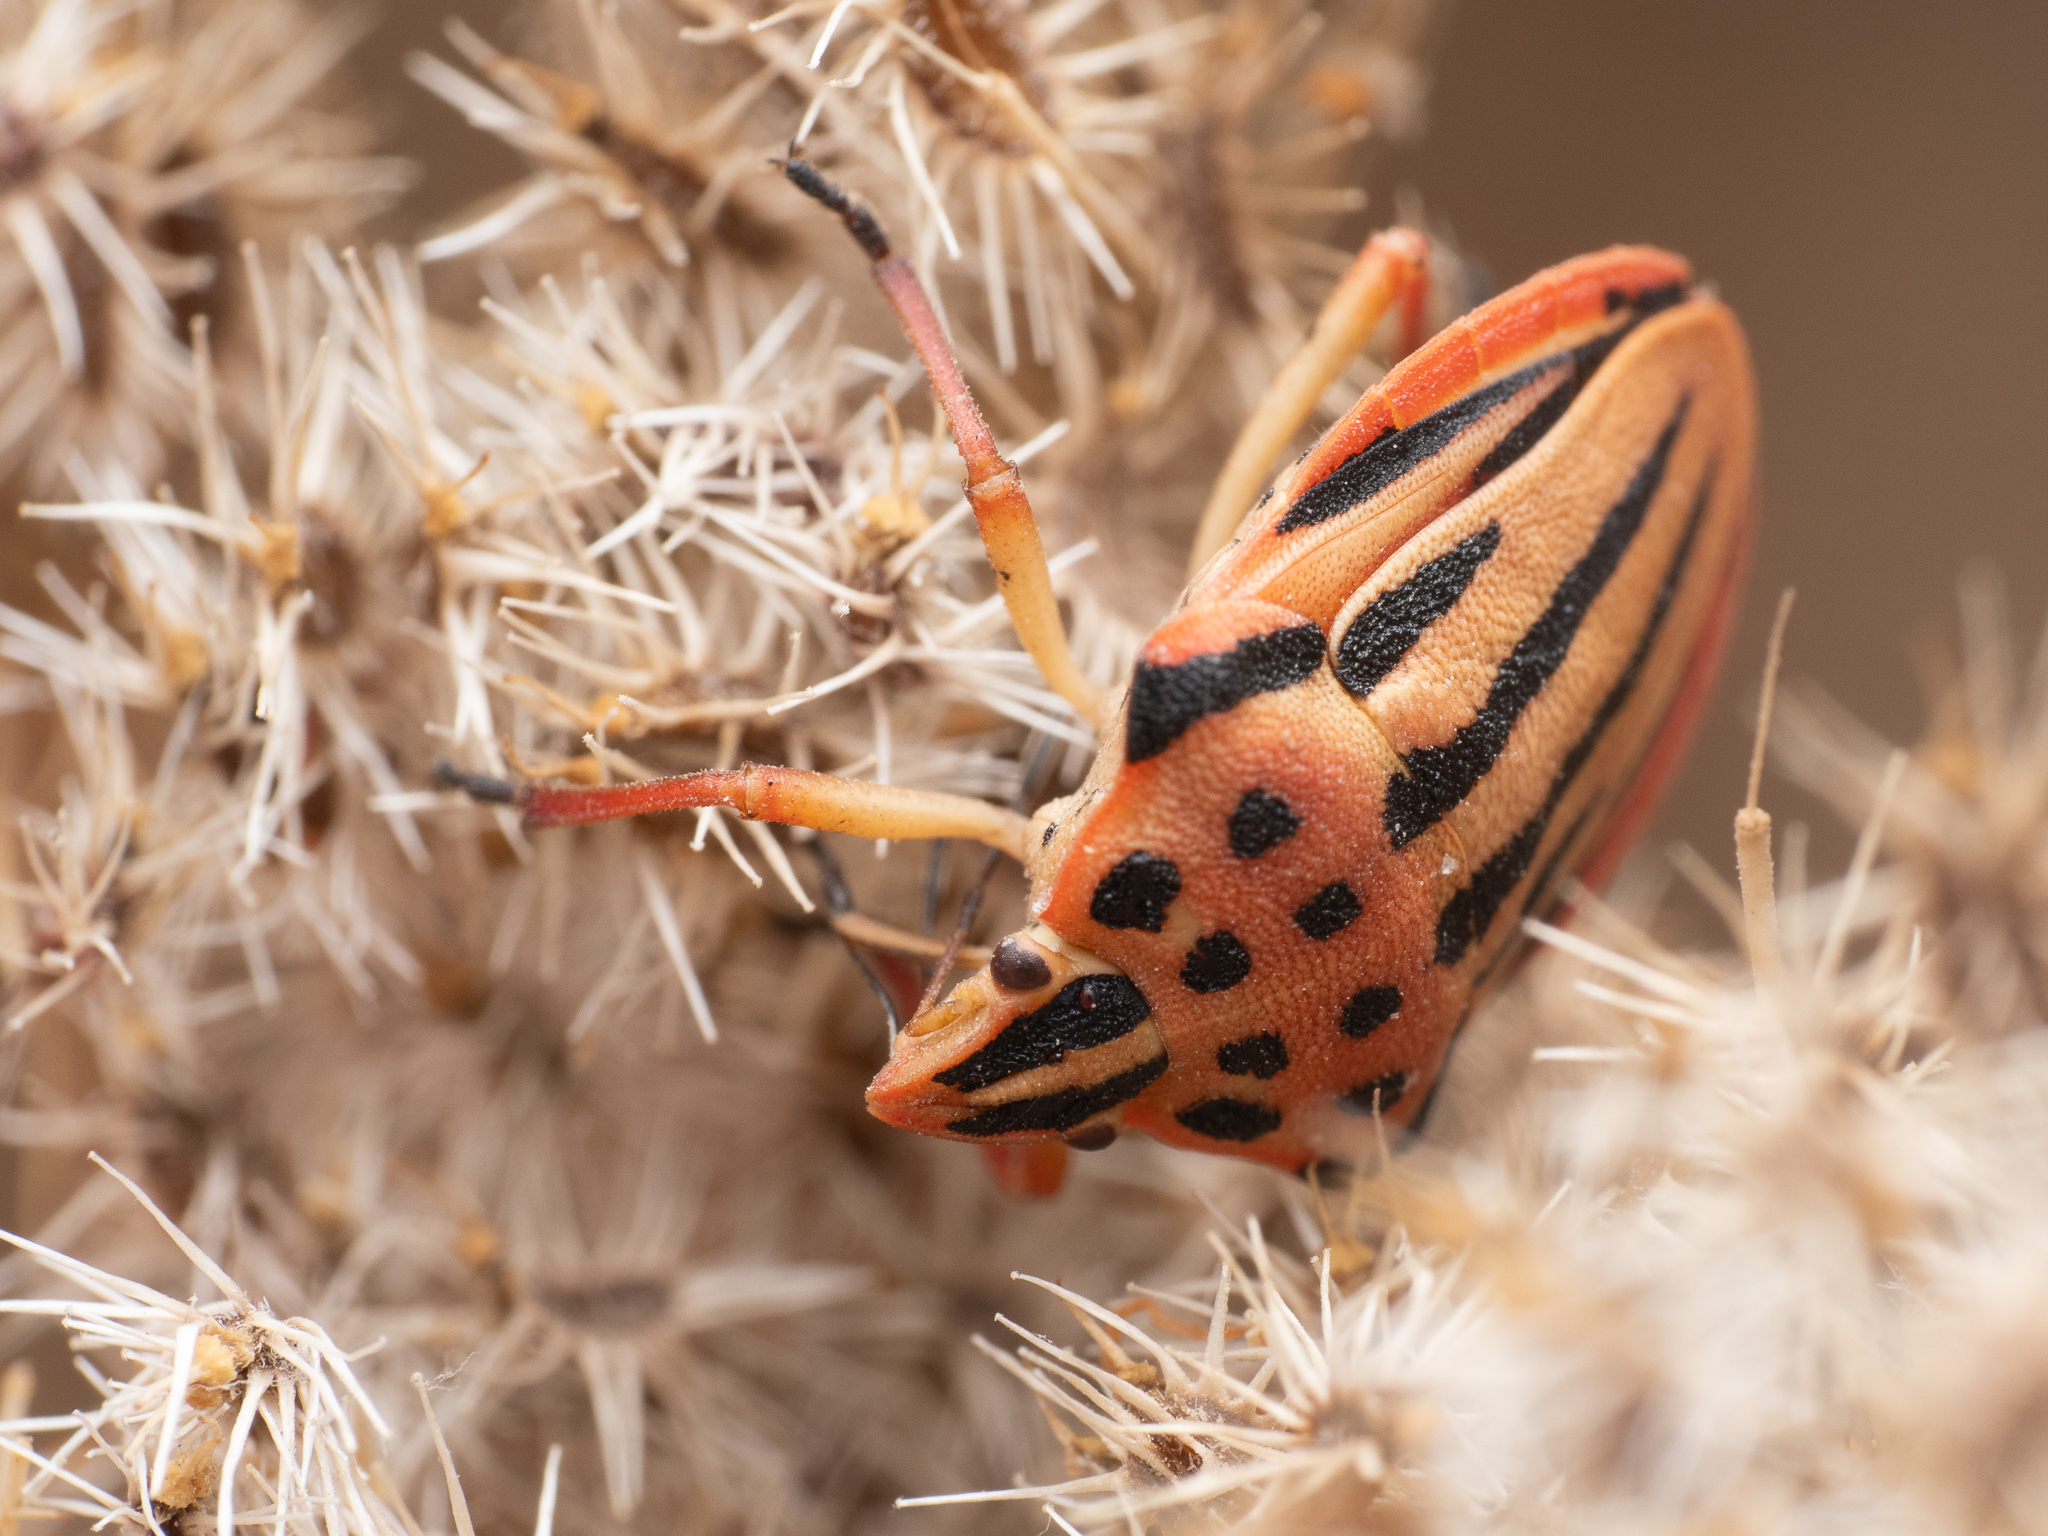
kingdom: Animalia
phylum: Arthropoda
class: Insecta
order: Hemiptera
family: Pentatomidae
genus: Graphosoma
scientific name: Graphosoma semipunctatum
